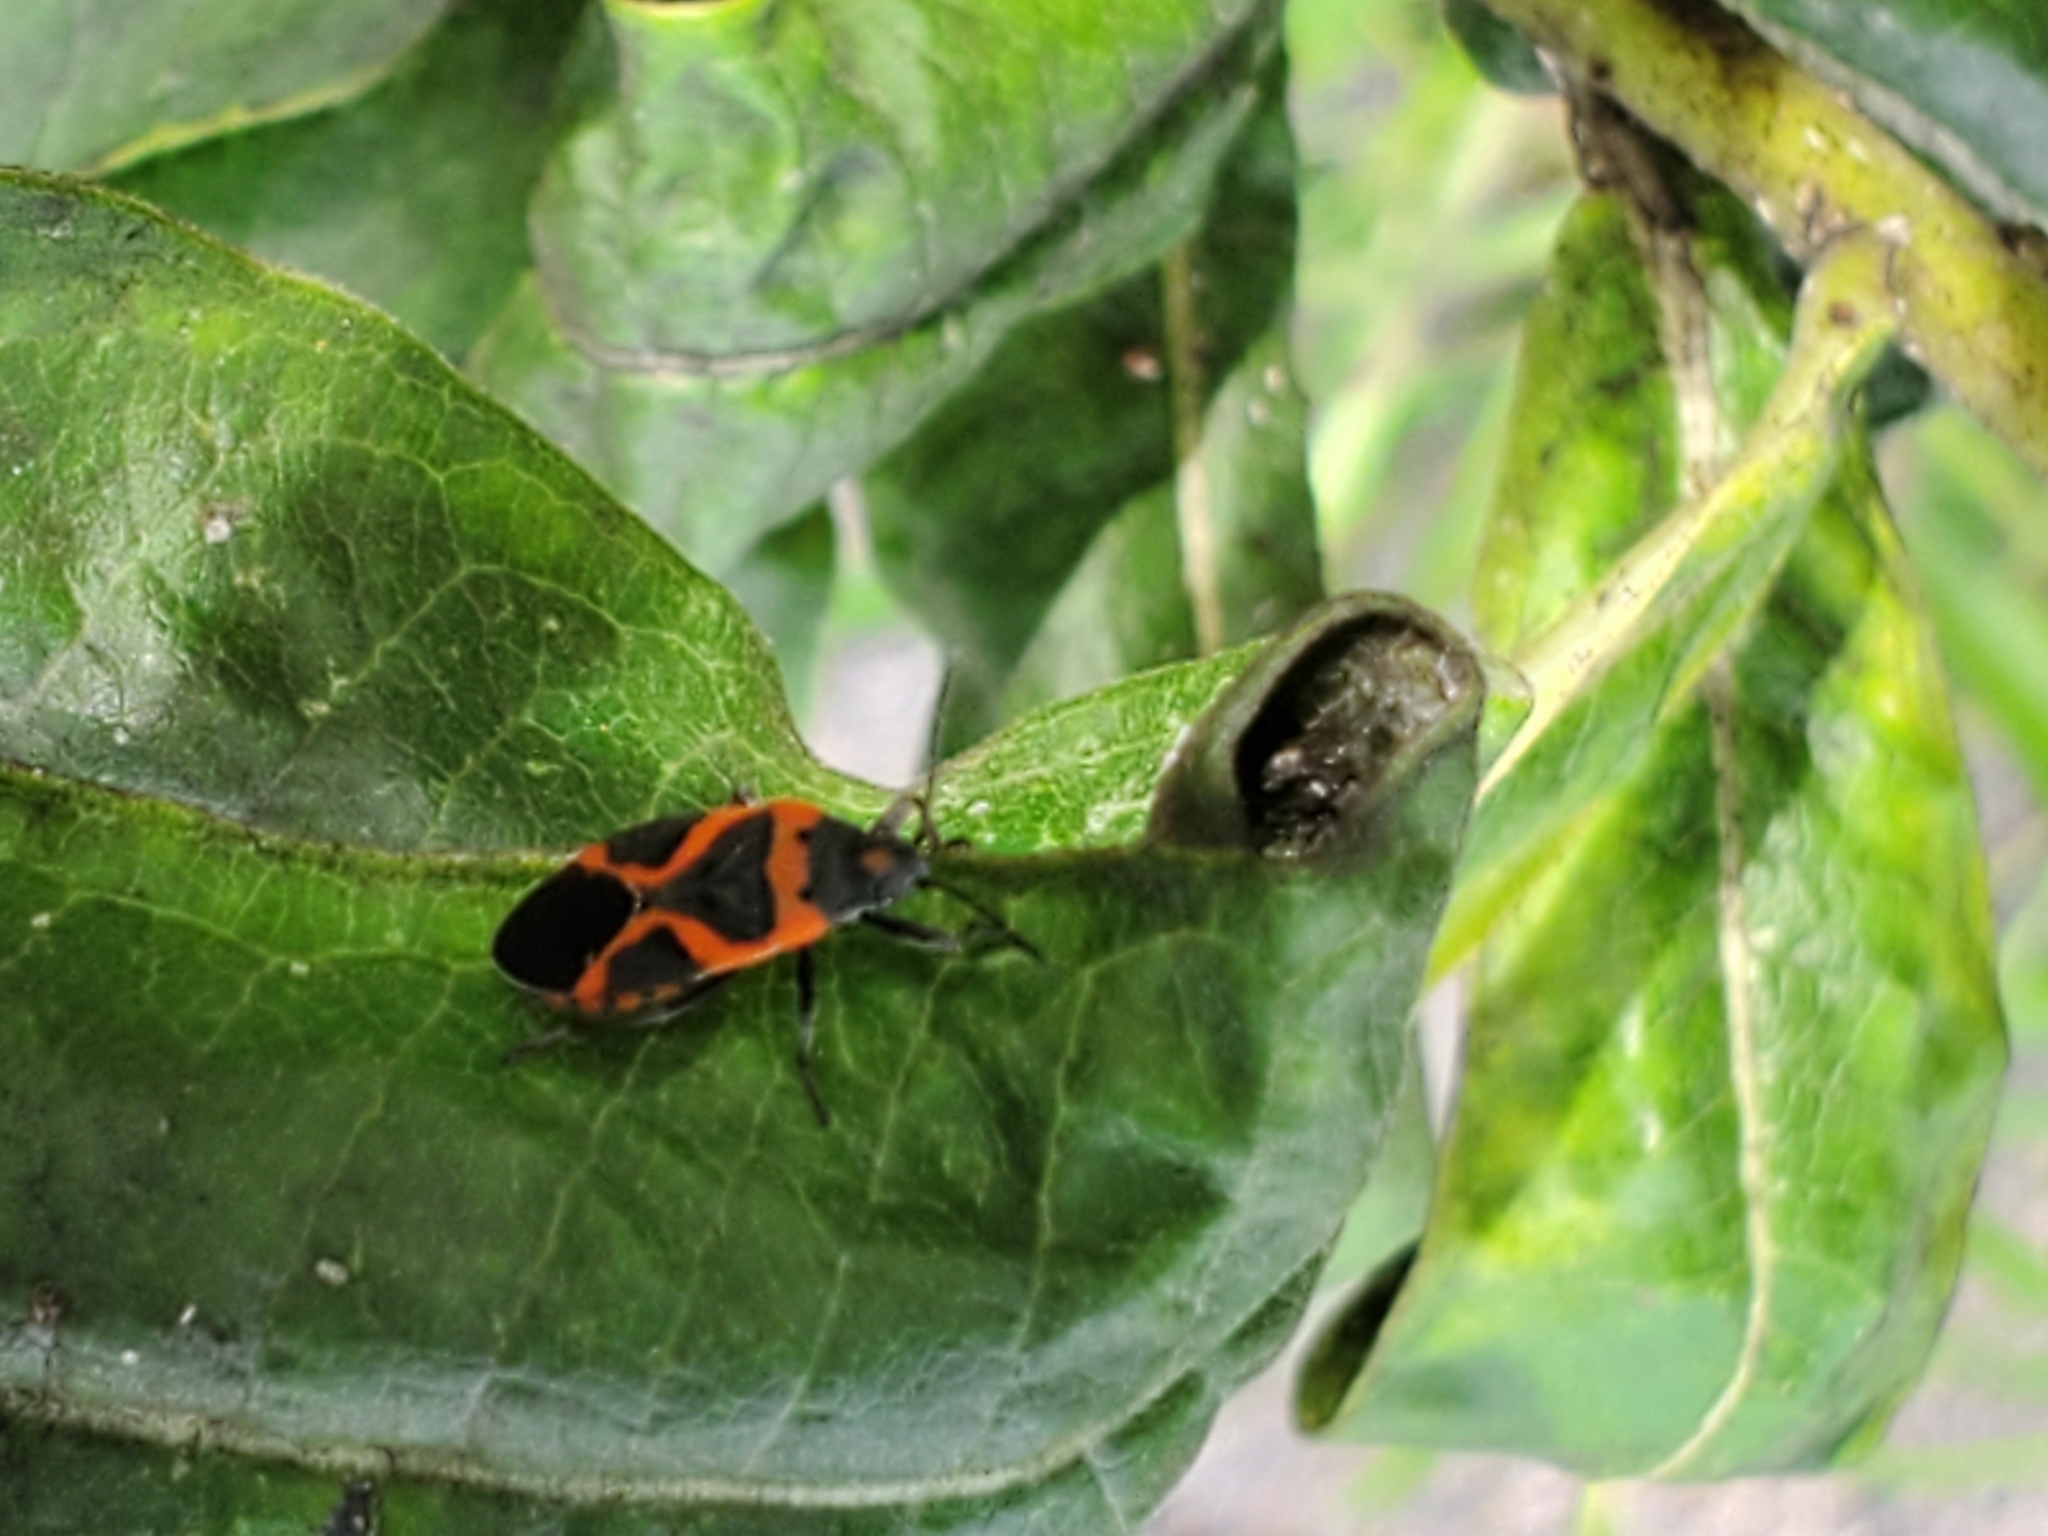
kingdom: Animalia
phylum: Arthropoda
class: Insecta
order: Hemiptera
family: Lygaeidae
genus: Lygaeus
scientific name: Lygaeus kalmii
